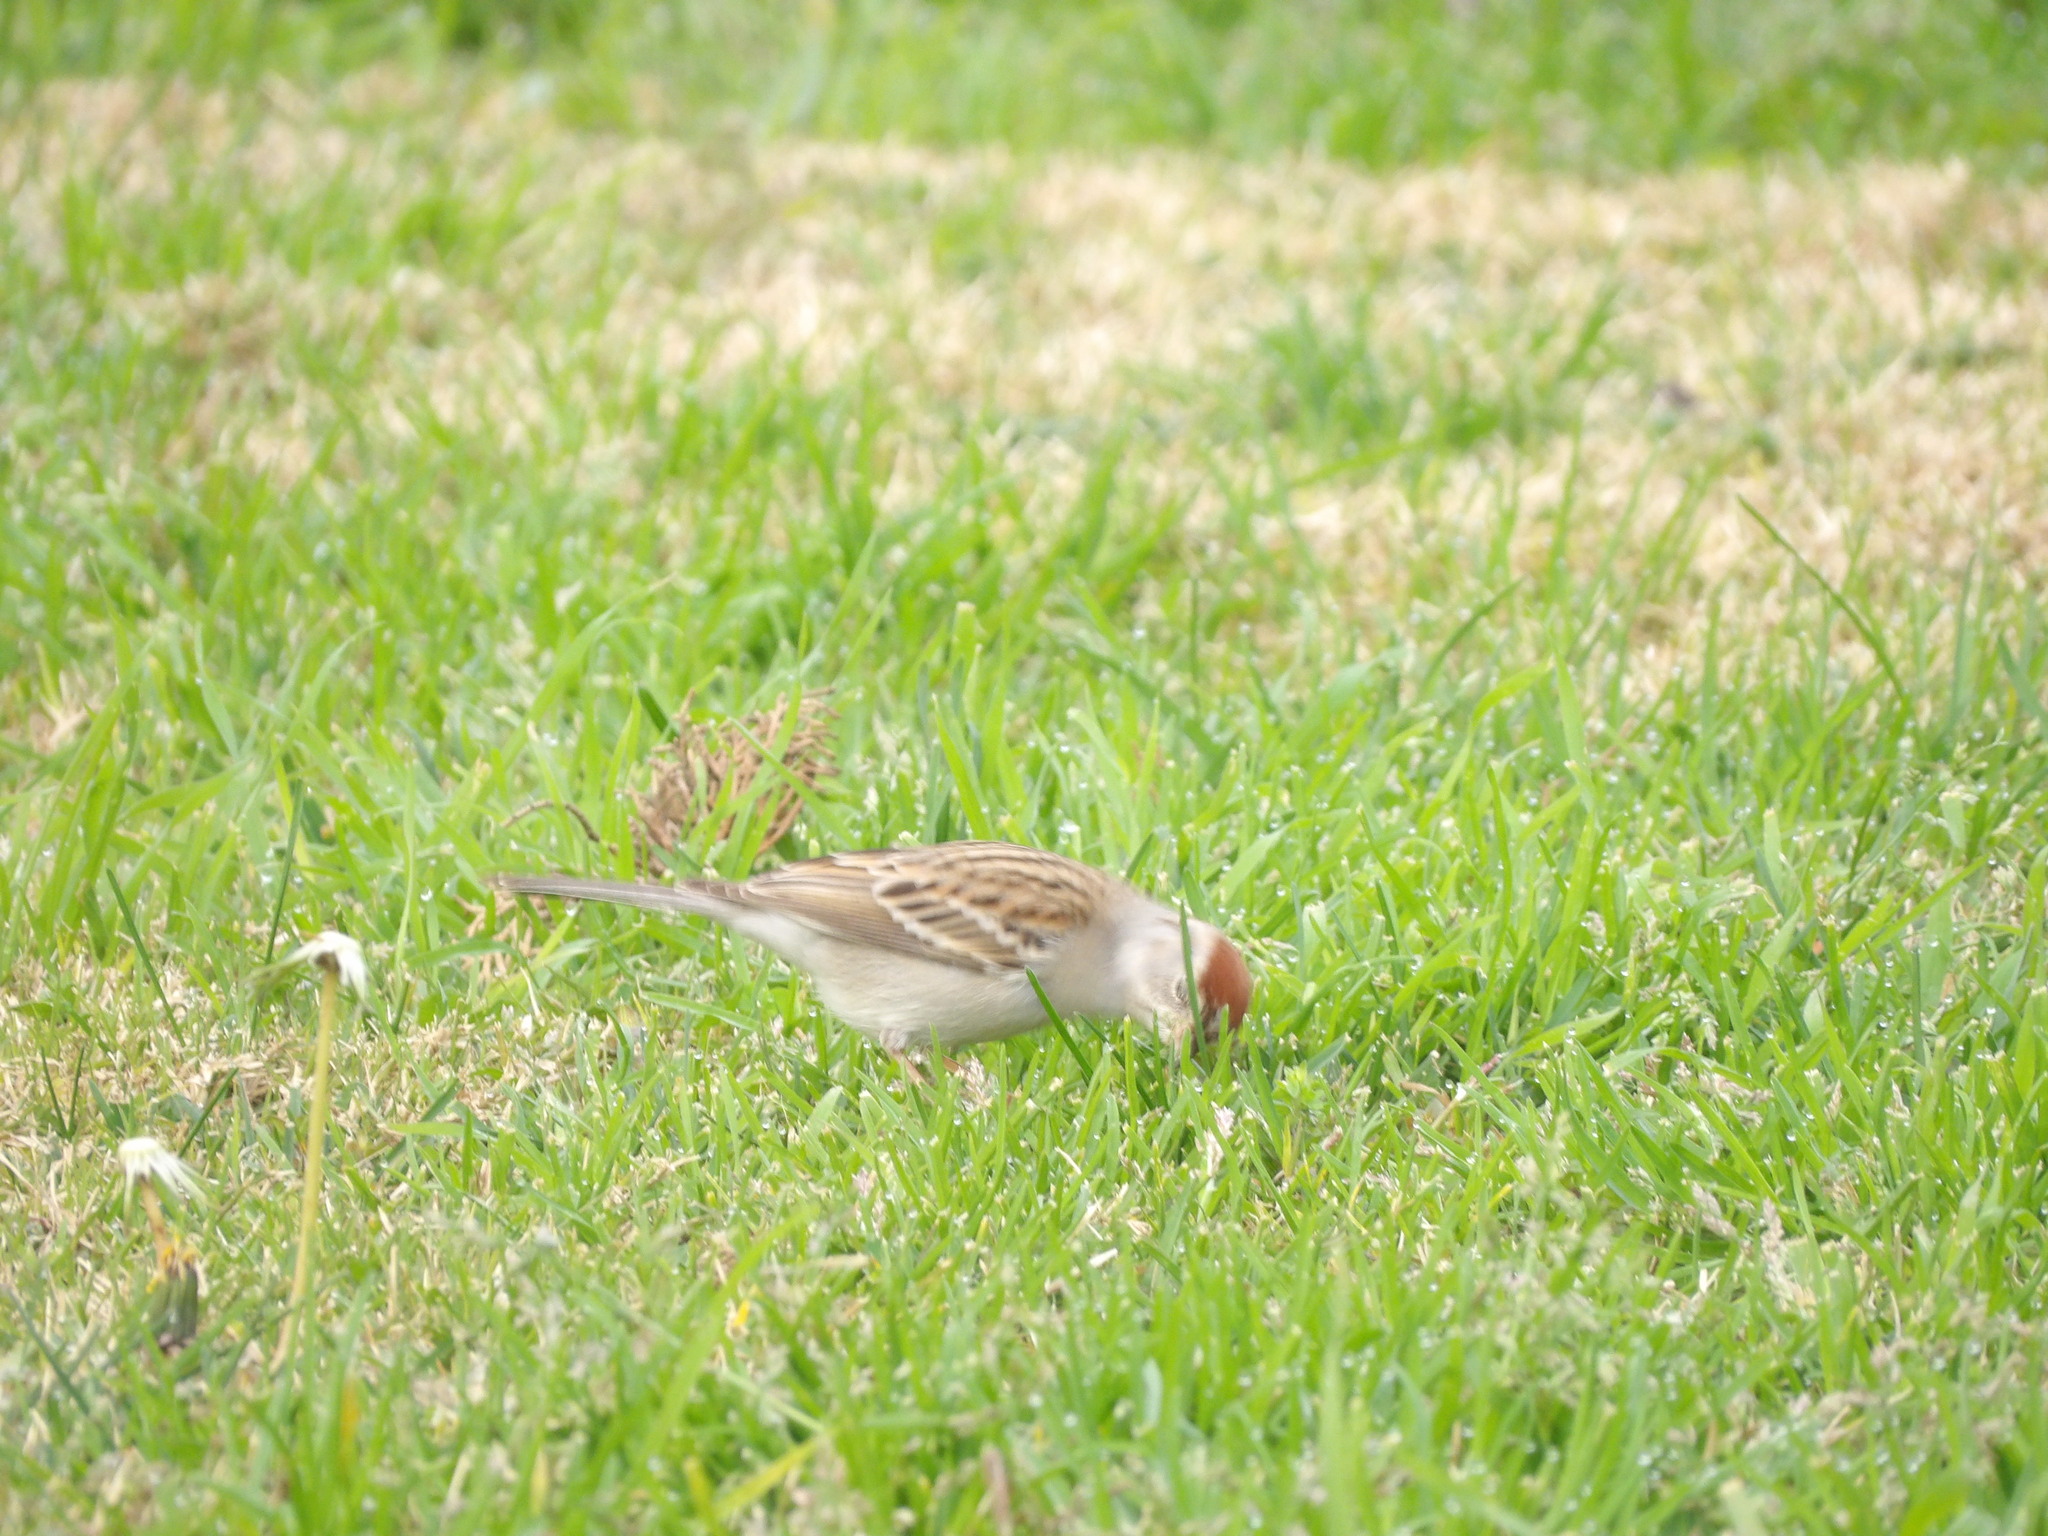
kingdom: Animalia
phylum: Chordata
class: Aves
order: Passeriformes
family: Passerellidae
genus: Spizella
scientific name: Spizella passerina
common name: Chipping sparrow
